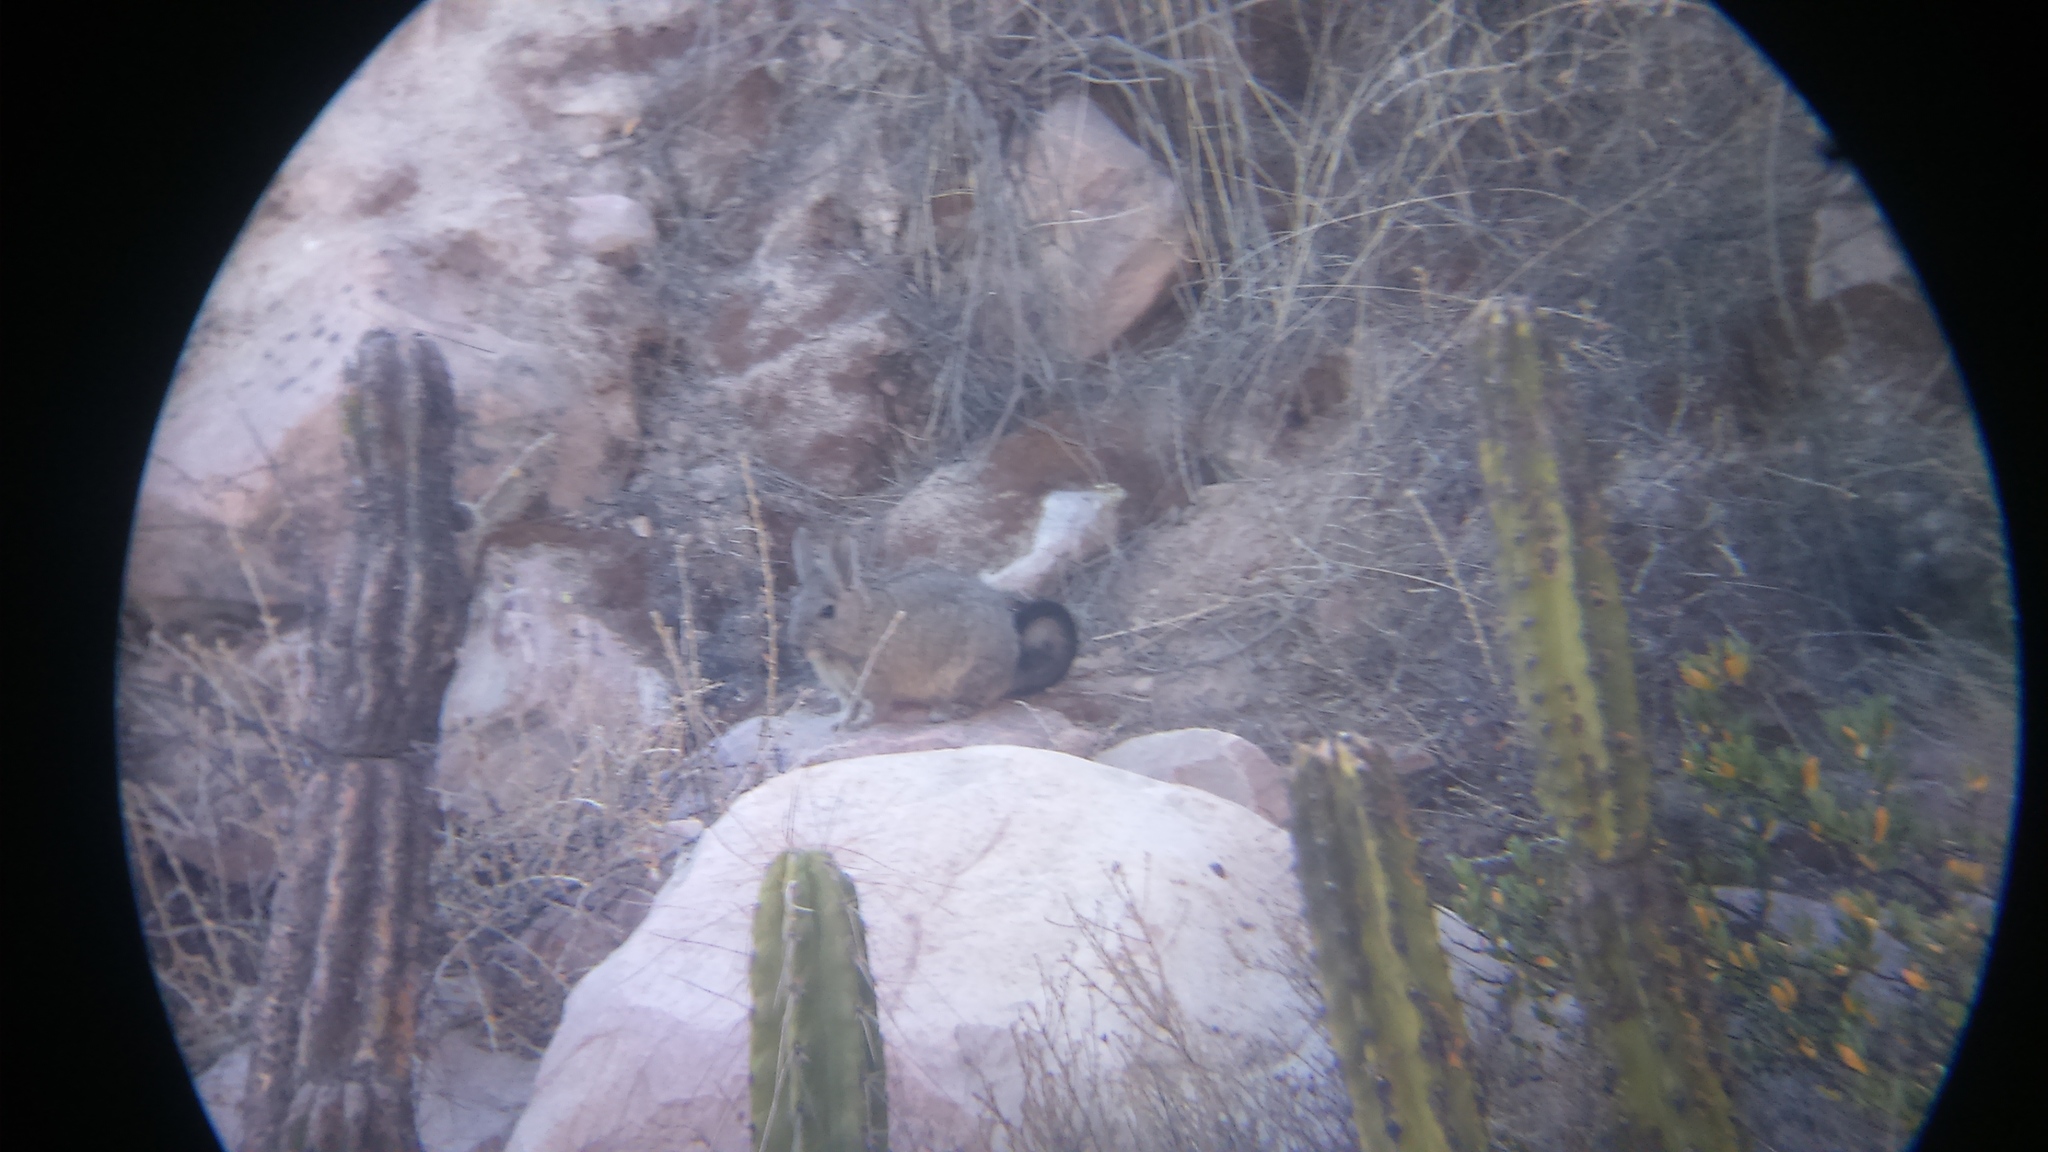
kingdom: Animalia
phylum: Chordata
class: Mammalia
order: Rodentia
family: Chinchillidae
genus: Lagidium
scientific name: Lagidium viscacia
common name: Southern viscacha
